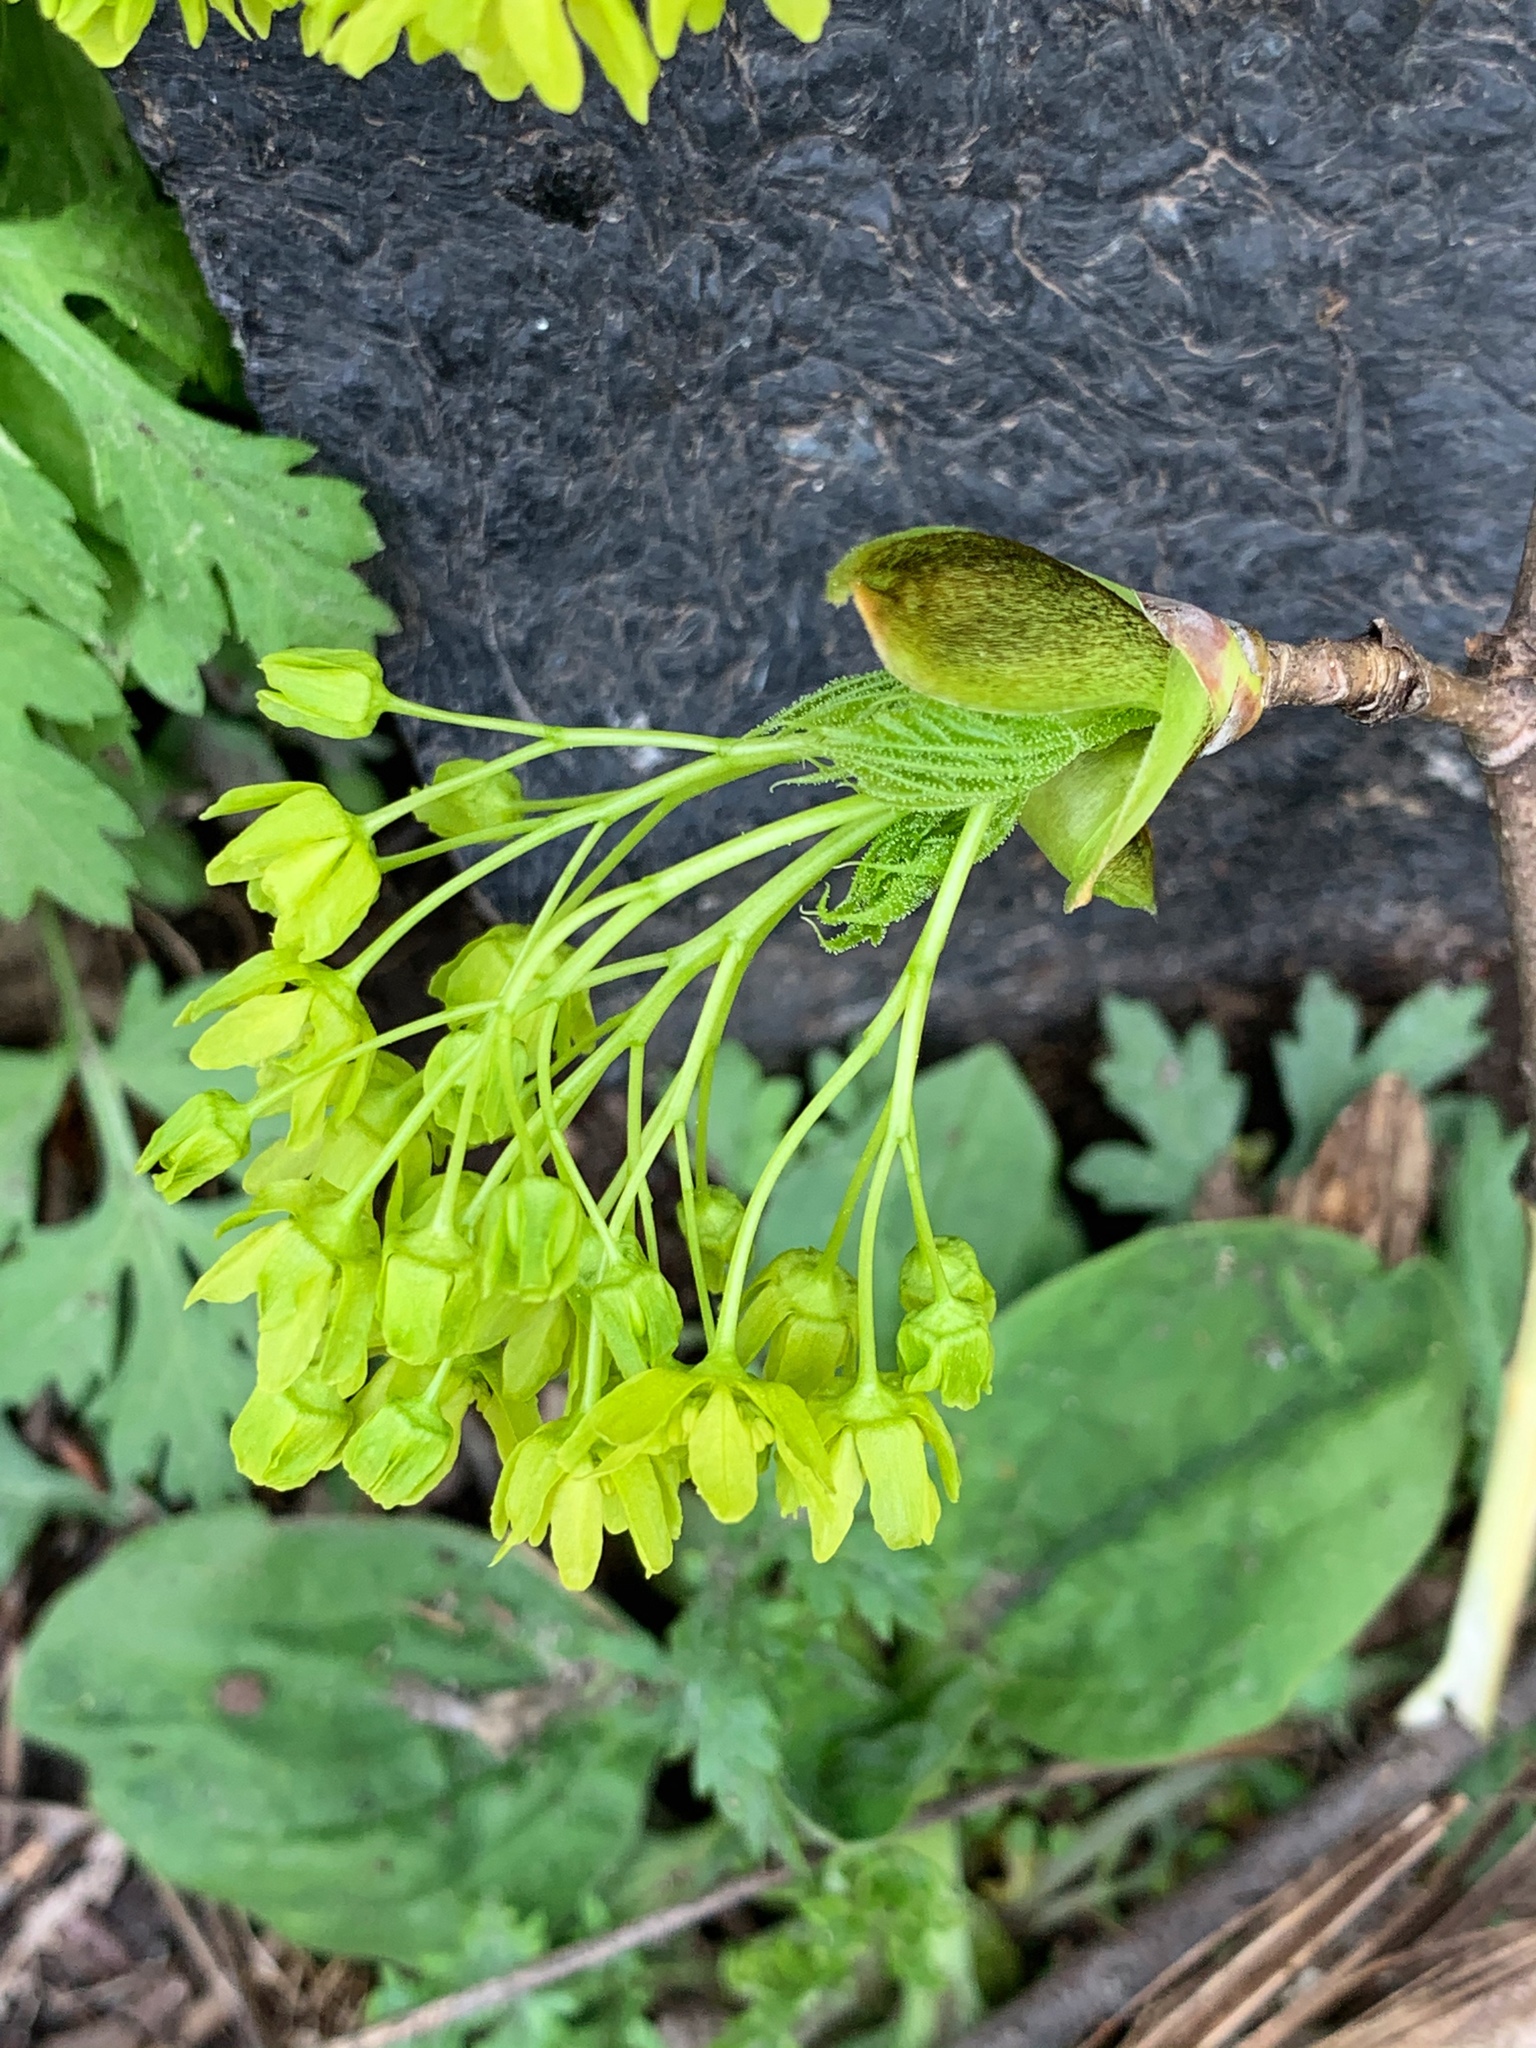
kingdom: Plantae
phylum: Tracheophyta
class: Magnoliopsida
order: Sapindales
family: Sapindaceae
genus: Acer
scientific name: Acer platanoides
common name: Norway maple
